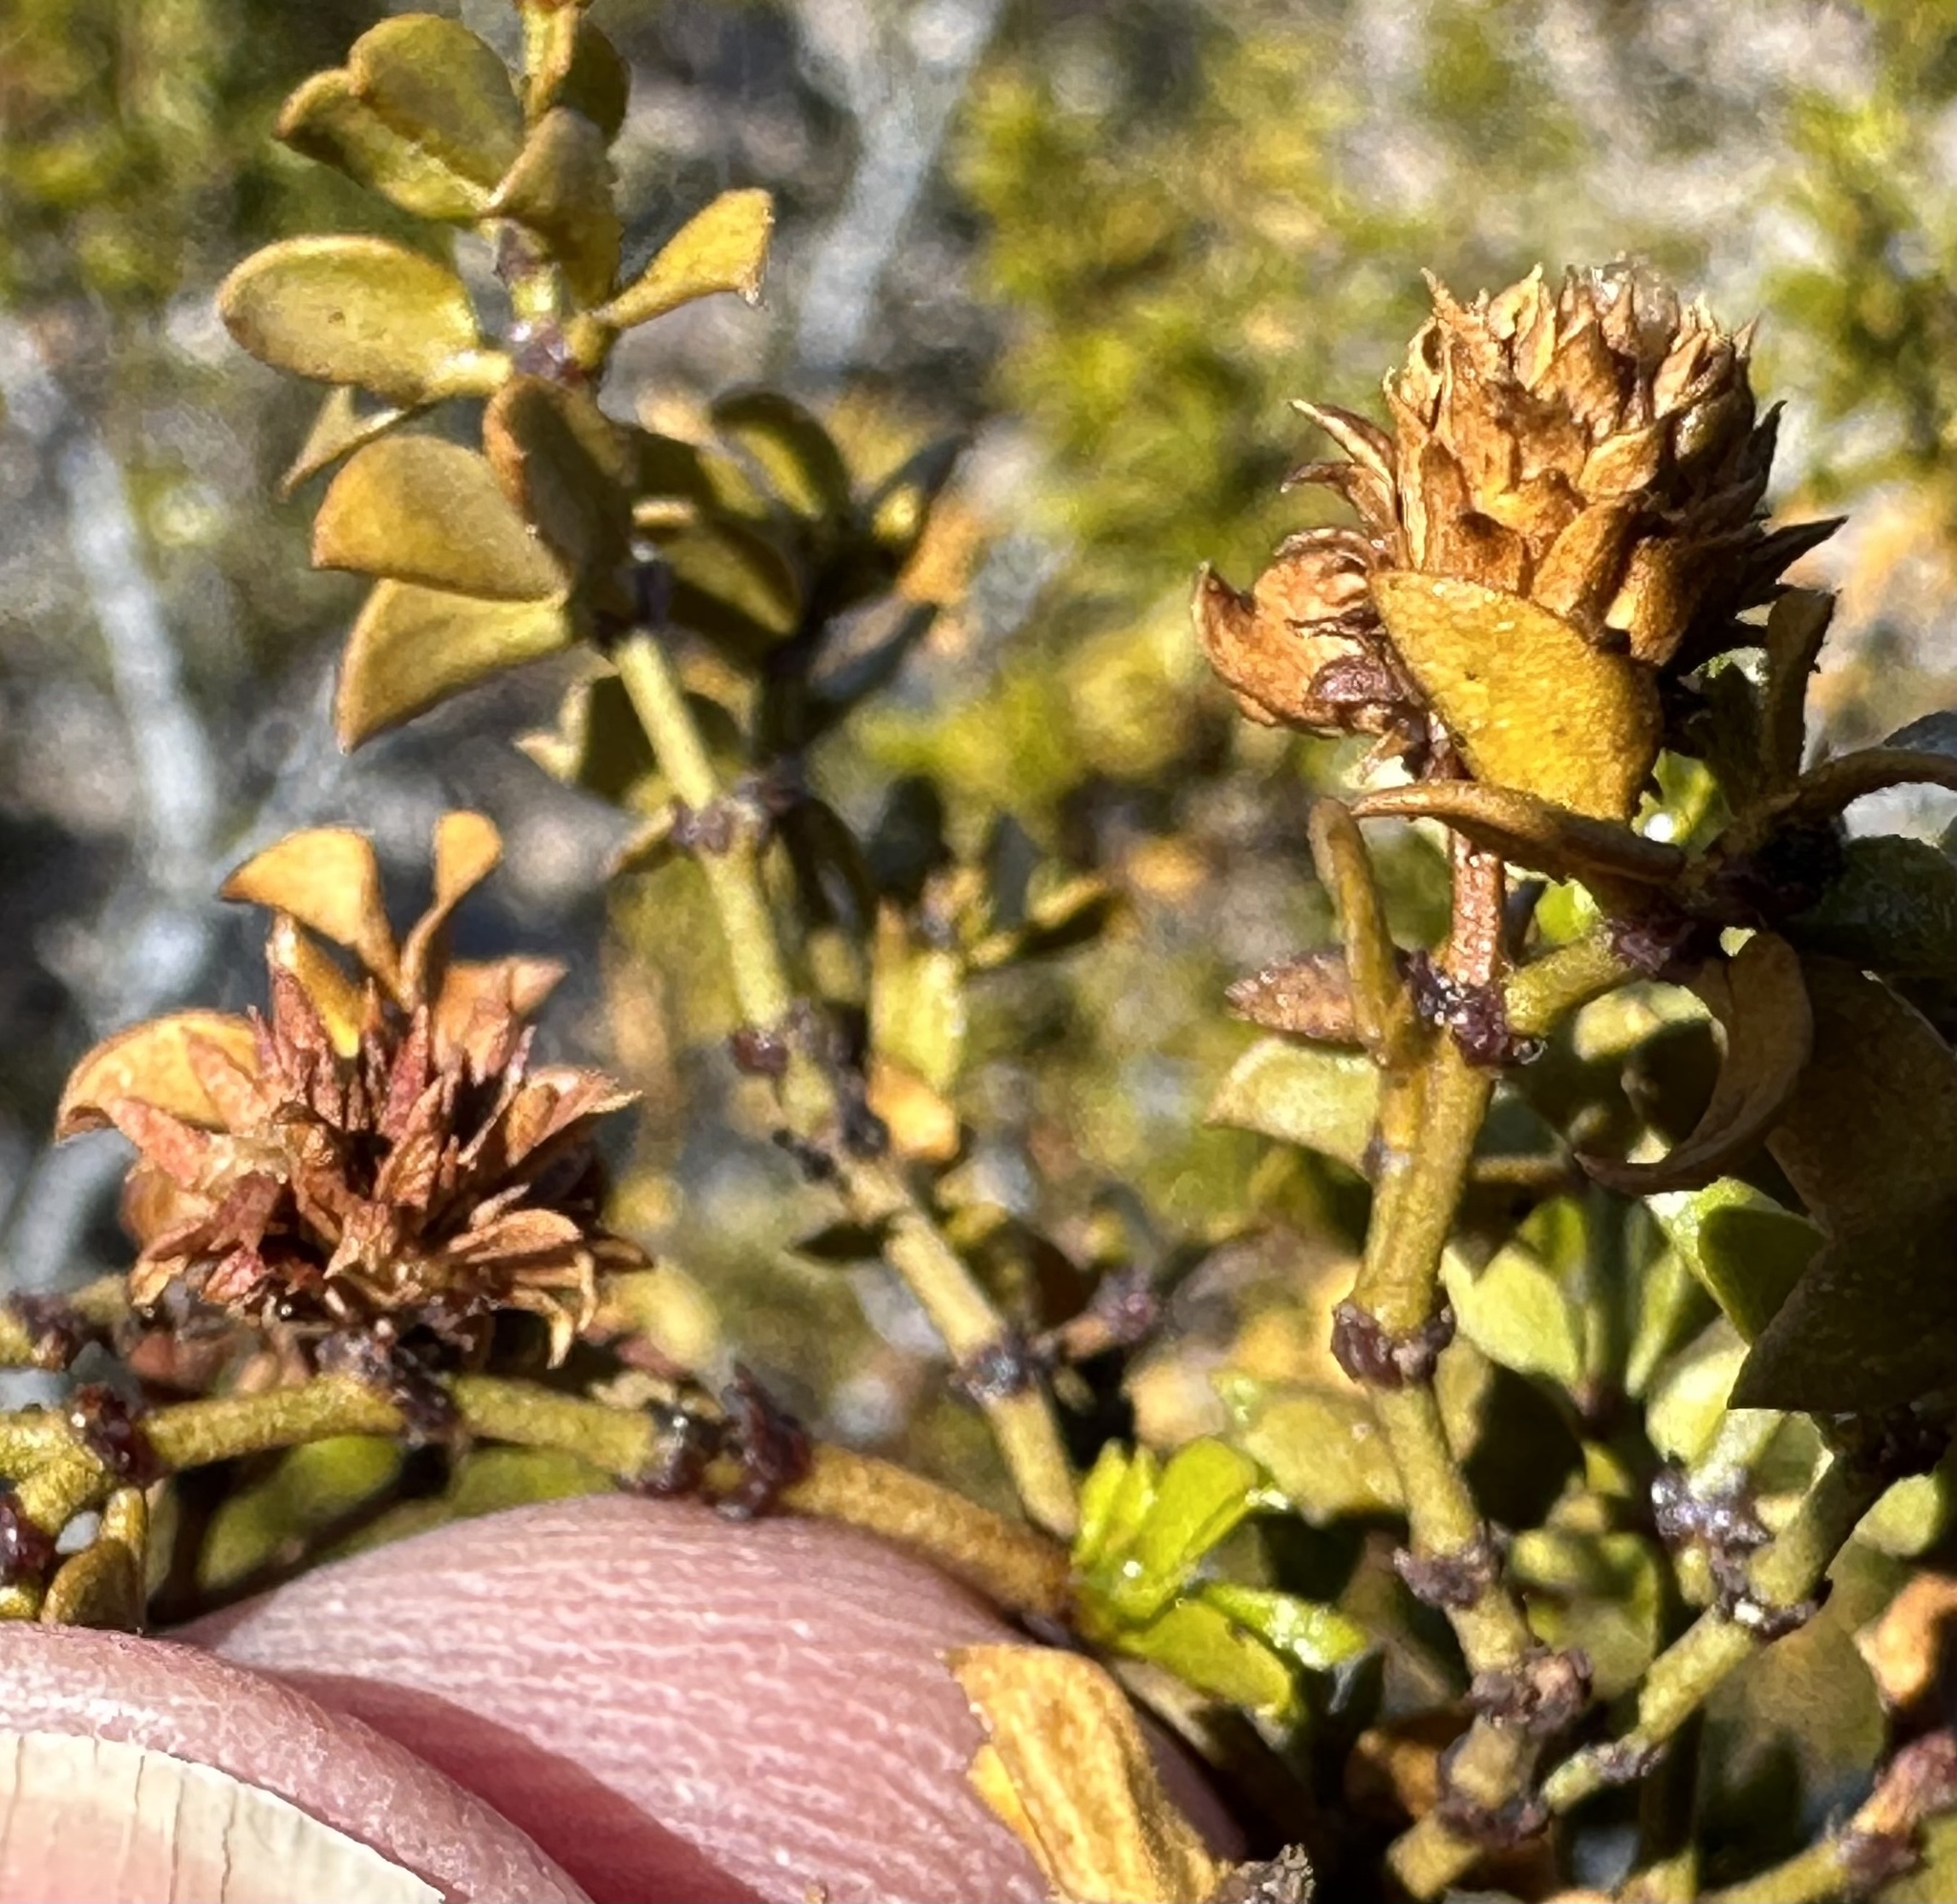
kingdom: Animalia
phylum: Arthropoda
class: Insecta
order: Diptera
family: Cecidomyiidae
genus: Asphondylia
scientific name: Asphondylia rosetta
